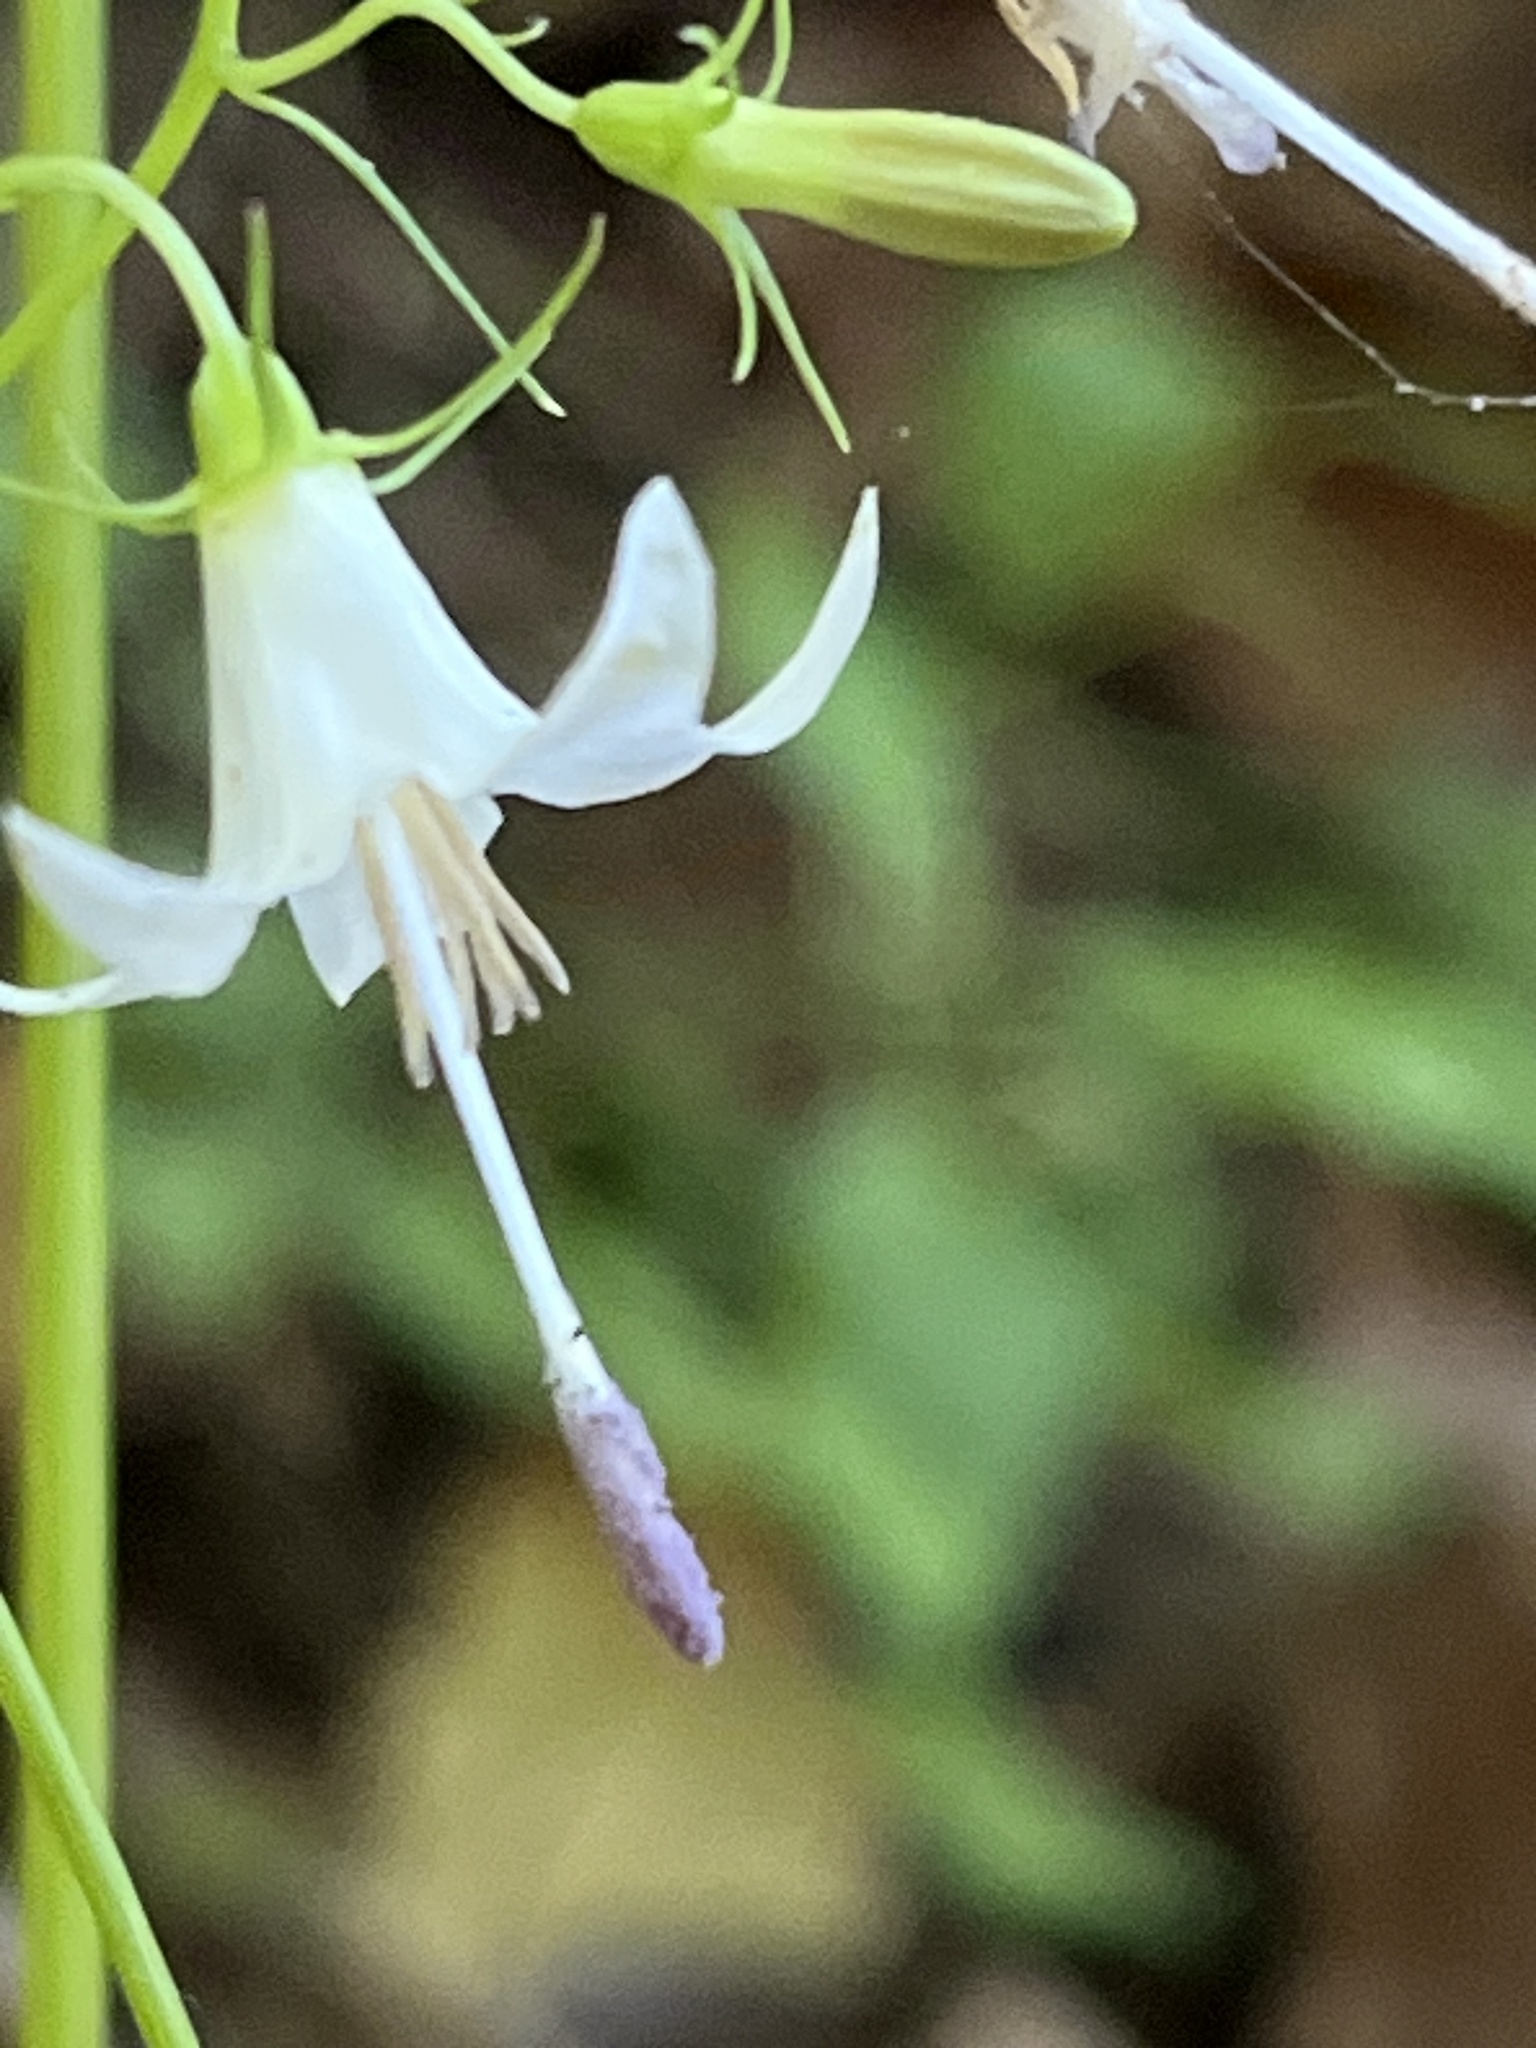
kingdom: Plantae
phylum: Tracheophyta
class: Magnoliopsida
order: Asterales
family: Campanulaceae
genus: Campanula
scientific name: Campanula scouleri
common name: Scouler's harebell
